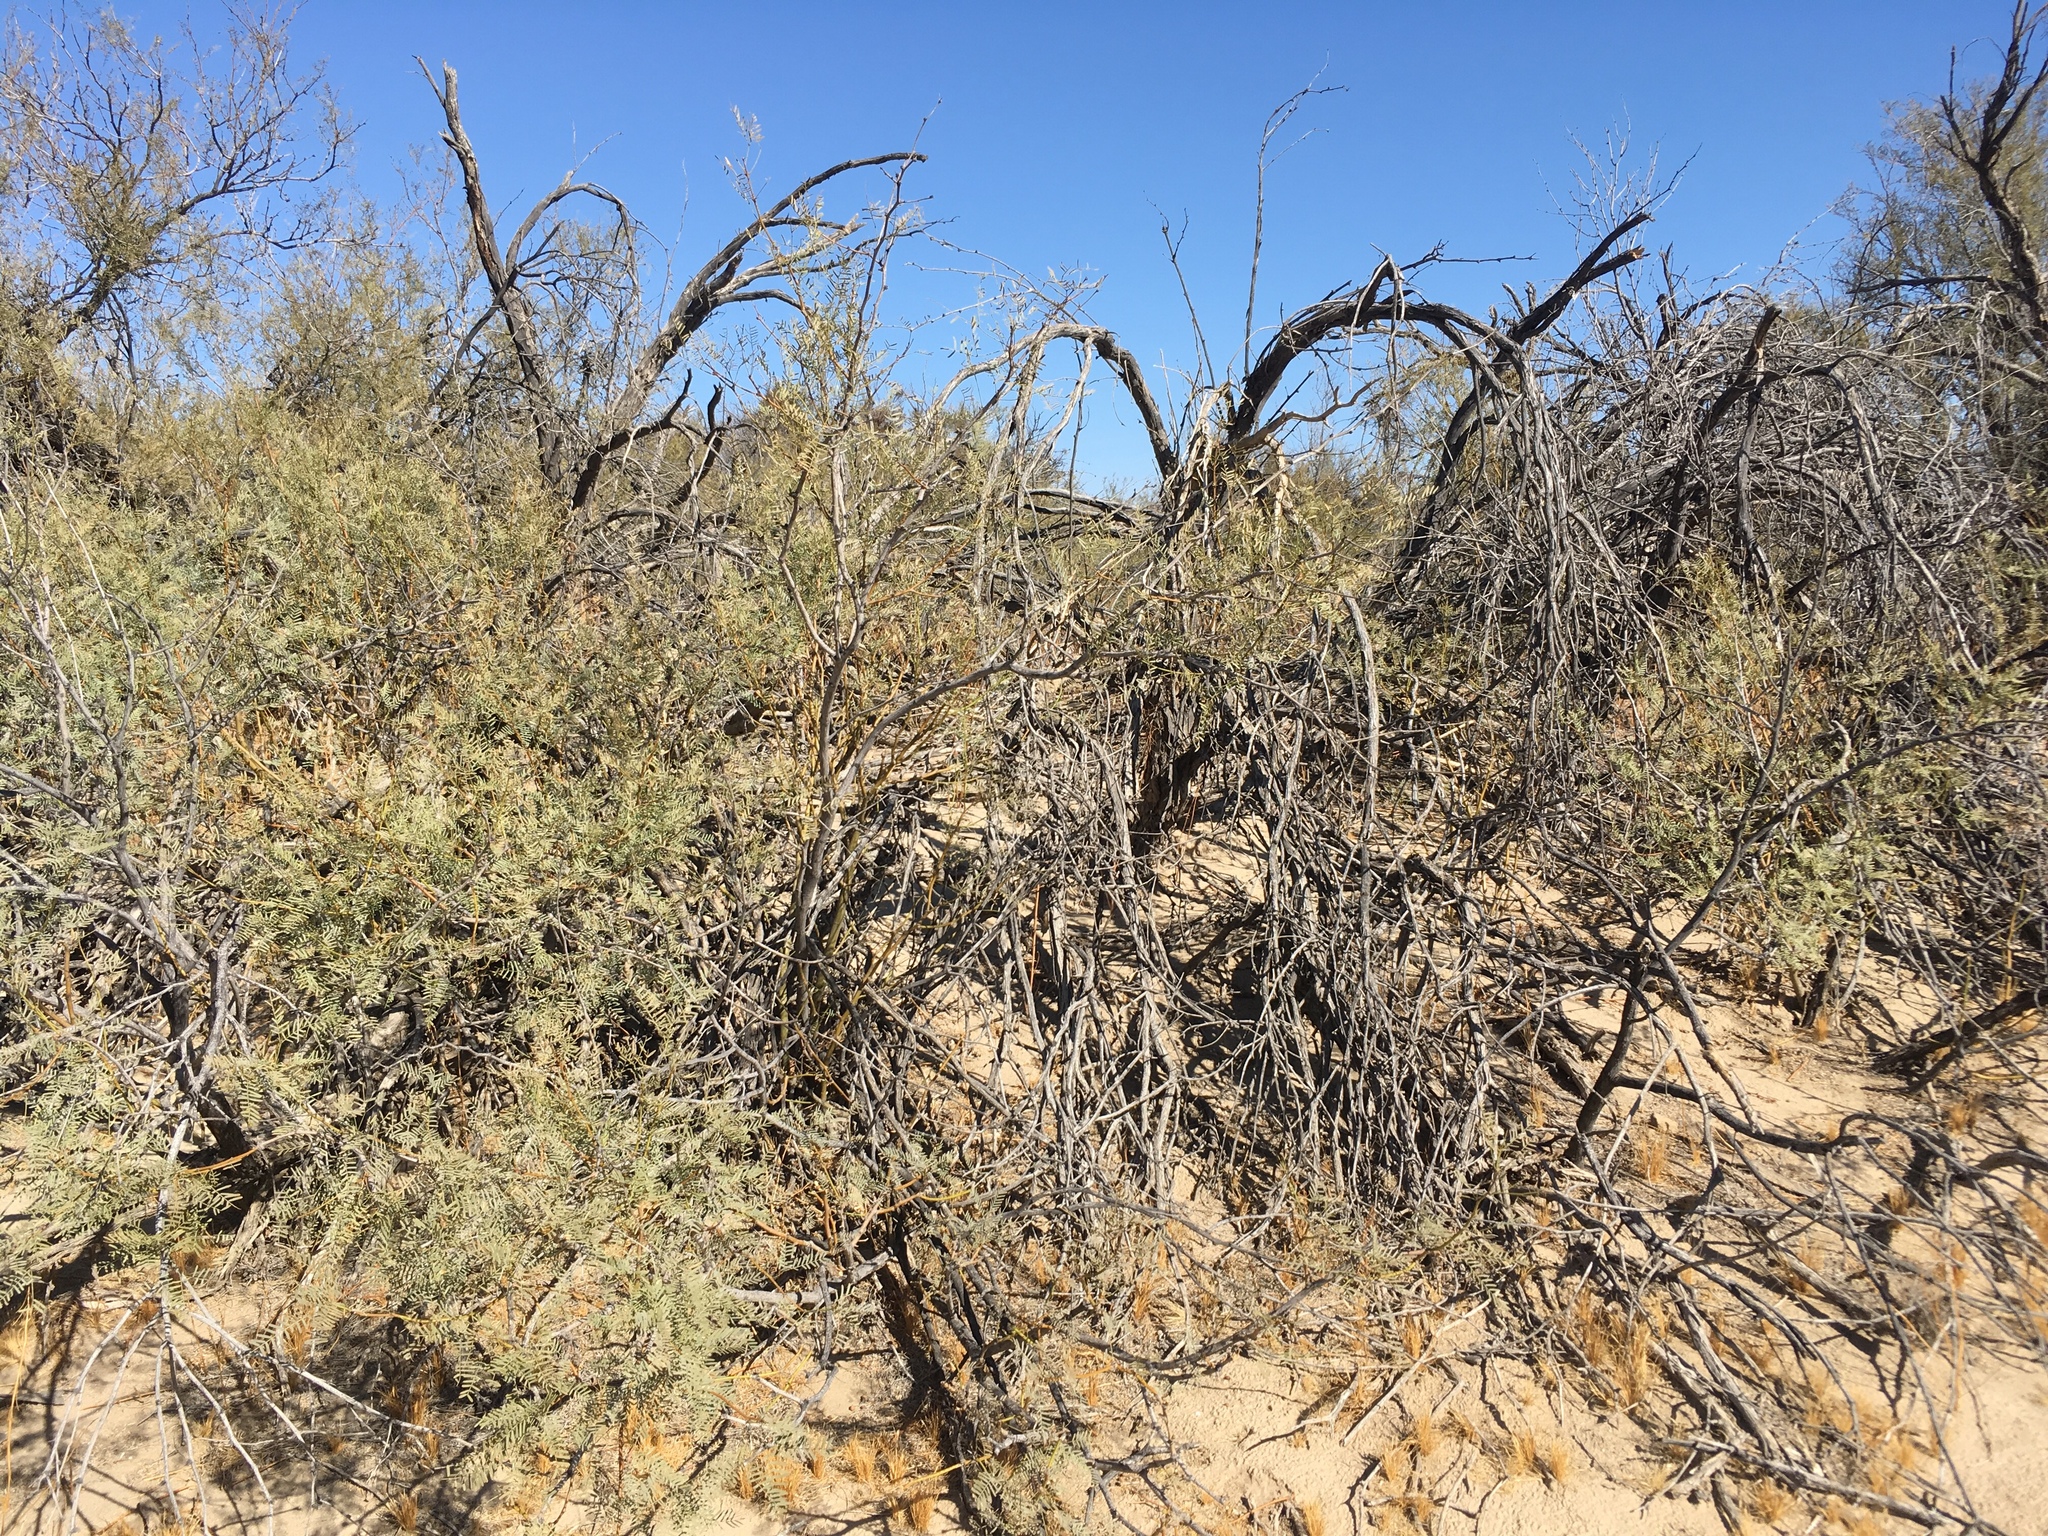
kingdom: Plantae
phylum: Tracheophyta
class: Magnoliopsida
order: Fabales
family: Fabaceae
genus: Prosopis
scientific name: Prosopis pubescens
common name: Screw-bean
